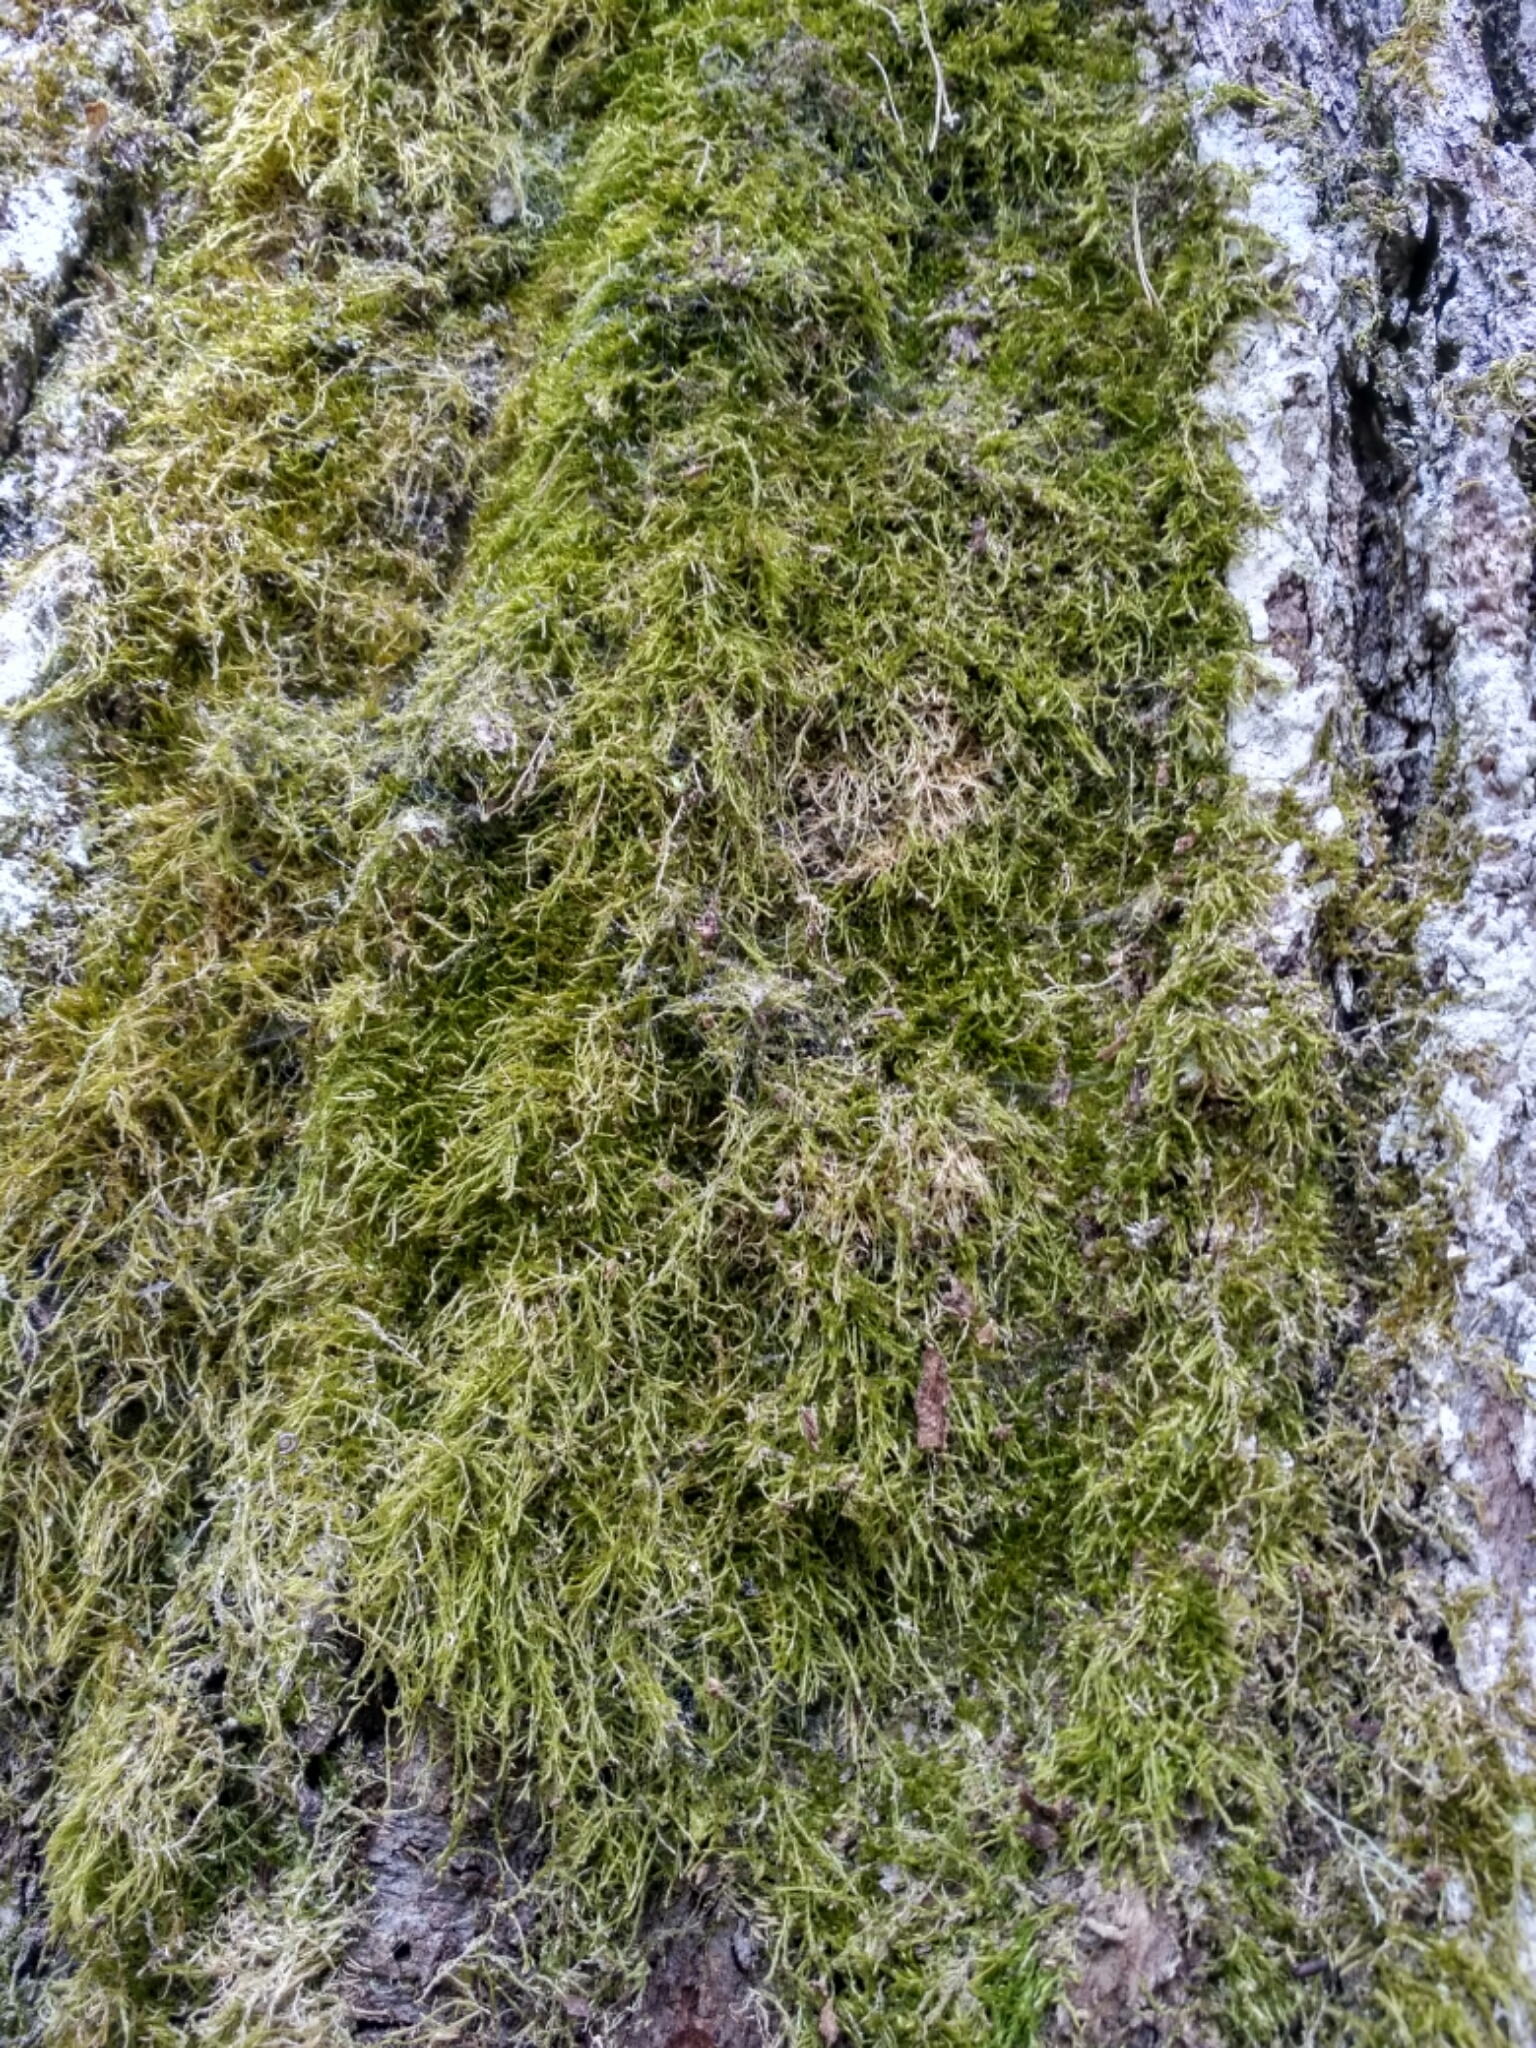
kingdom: Plantae
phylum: Bryophyta
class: Bryopsida
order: Hypnales
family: Hypnaceae
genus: Hypnum
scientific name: Hypnum cupressiforme
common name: Cypress-leaved plait-moss
